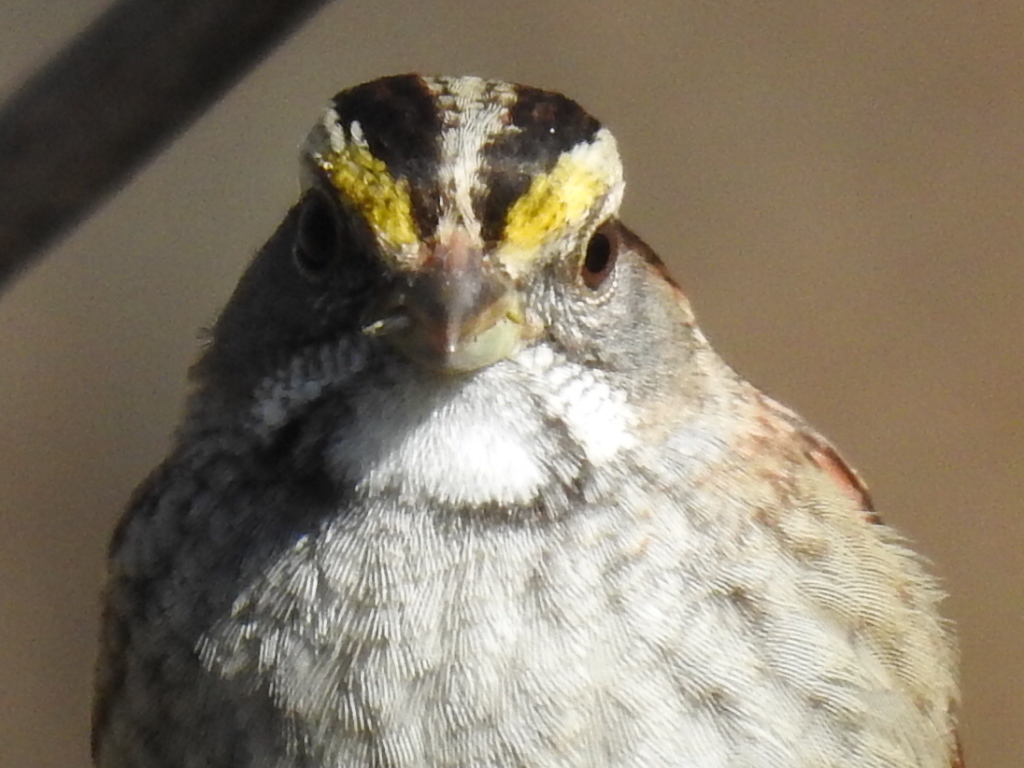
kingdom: Animalia
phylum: Chordata
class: Aves
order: Passeriformes
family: Passerellidae
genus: Zonotrichia
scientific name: Zonotrichia albicollis
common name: White-throated sparrow
